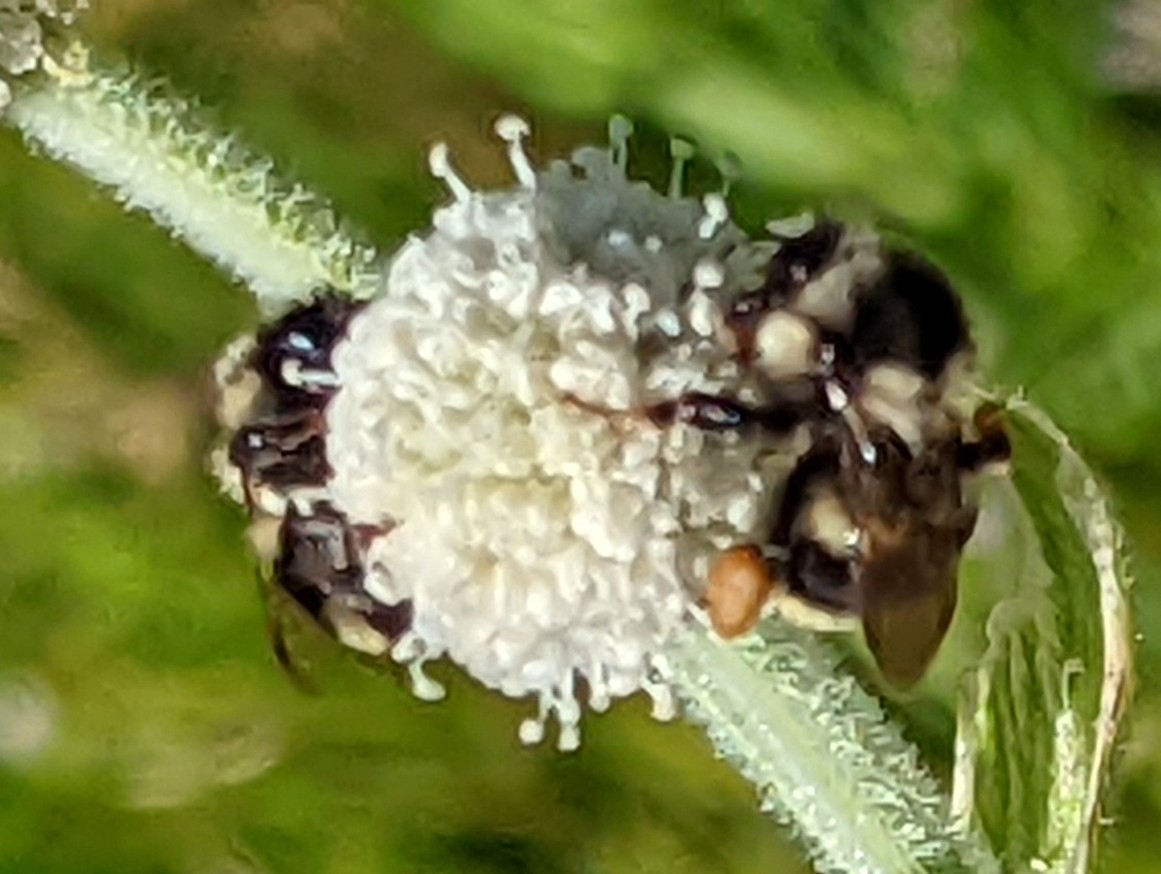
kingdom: Animalia
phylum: Arthropoda
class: Insecta
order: Hymenoptera
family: Apidae
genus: Bombus
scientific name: Bombus vancouverensis
